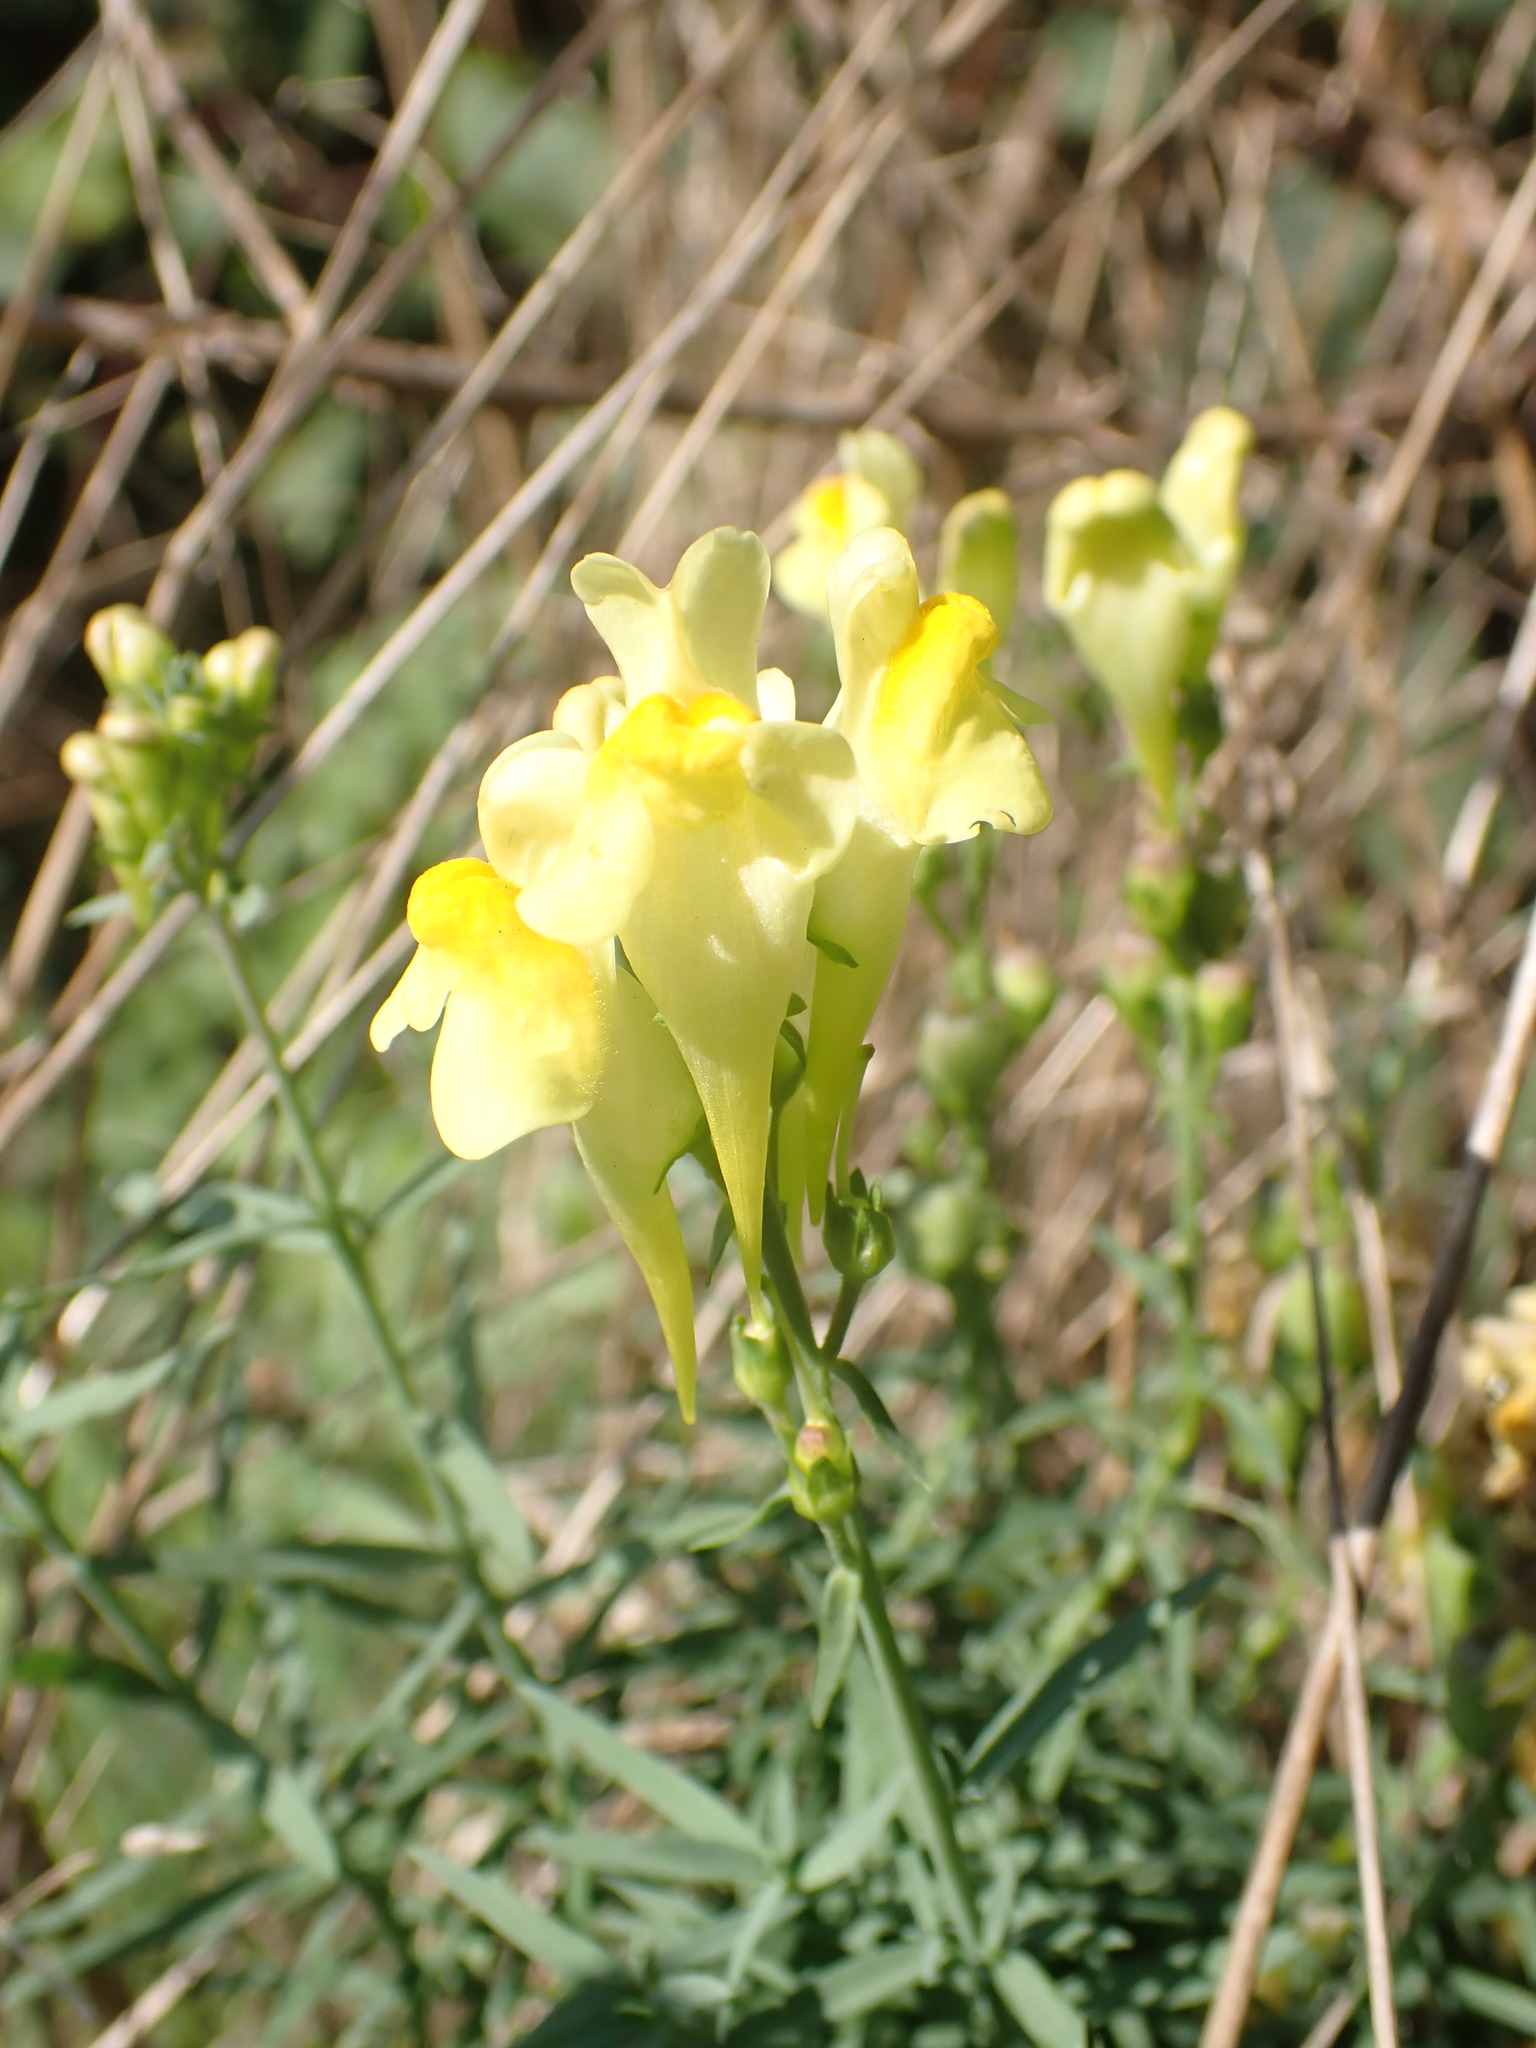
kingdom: Plantae
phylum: Tracheophyta
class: Magnoliopsida
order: Lamiales
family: Plantaginaceae
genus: Linaria
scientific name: Linaria vulgaris
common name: Butter and eggs
